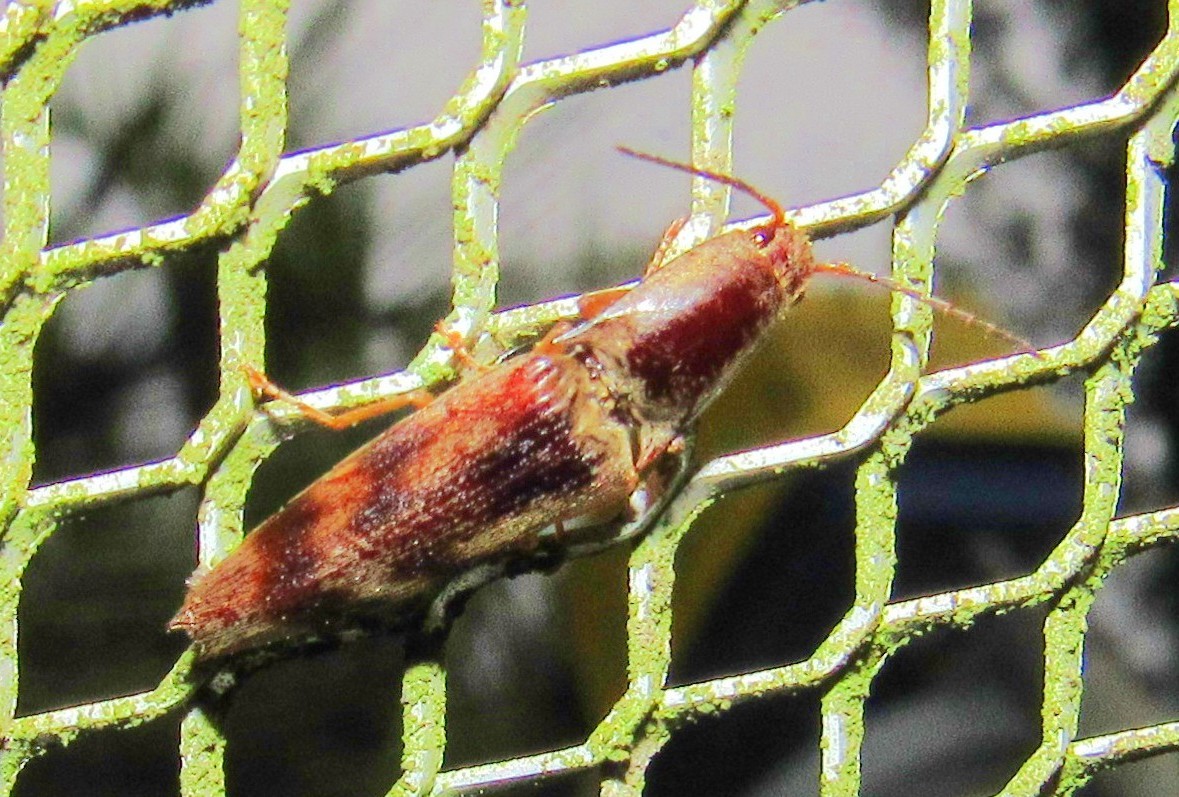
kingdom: Animalia
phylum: Arthropoda
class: Insecta
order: Coleoptera
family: Elateridae
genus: Monocrepidius
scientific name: Monocrepidius
